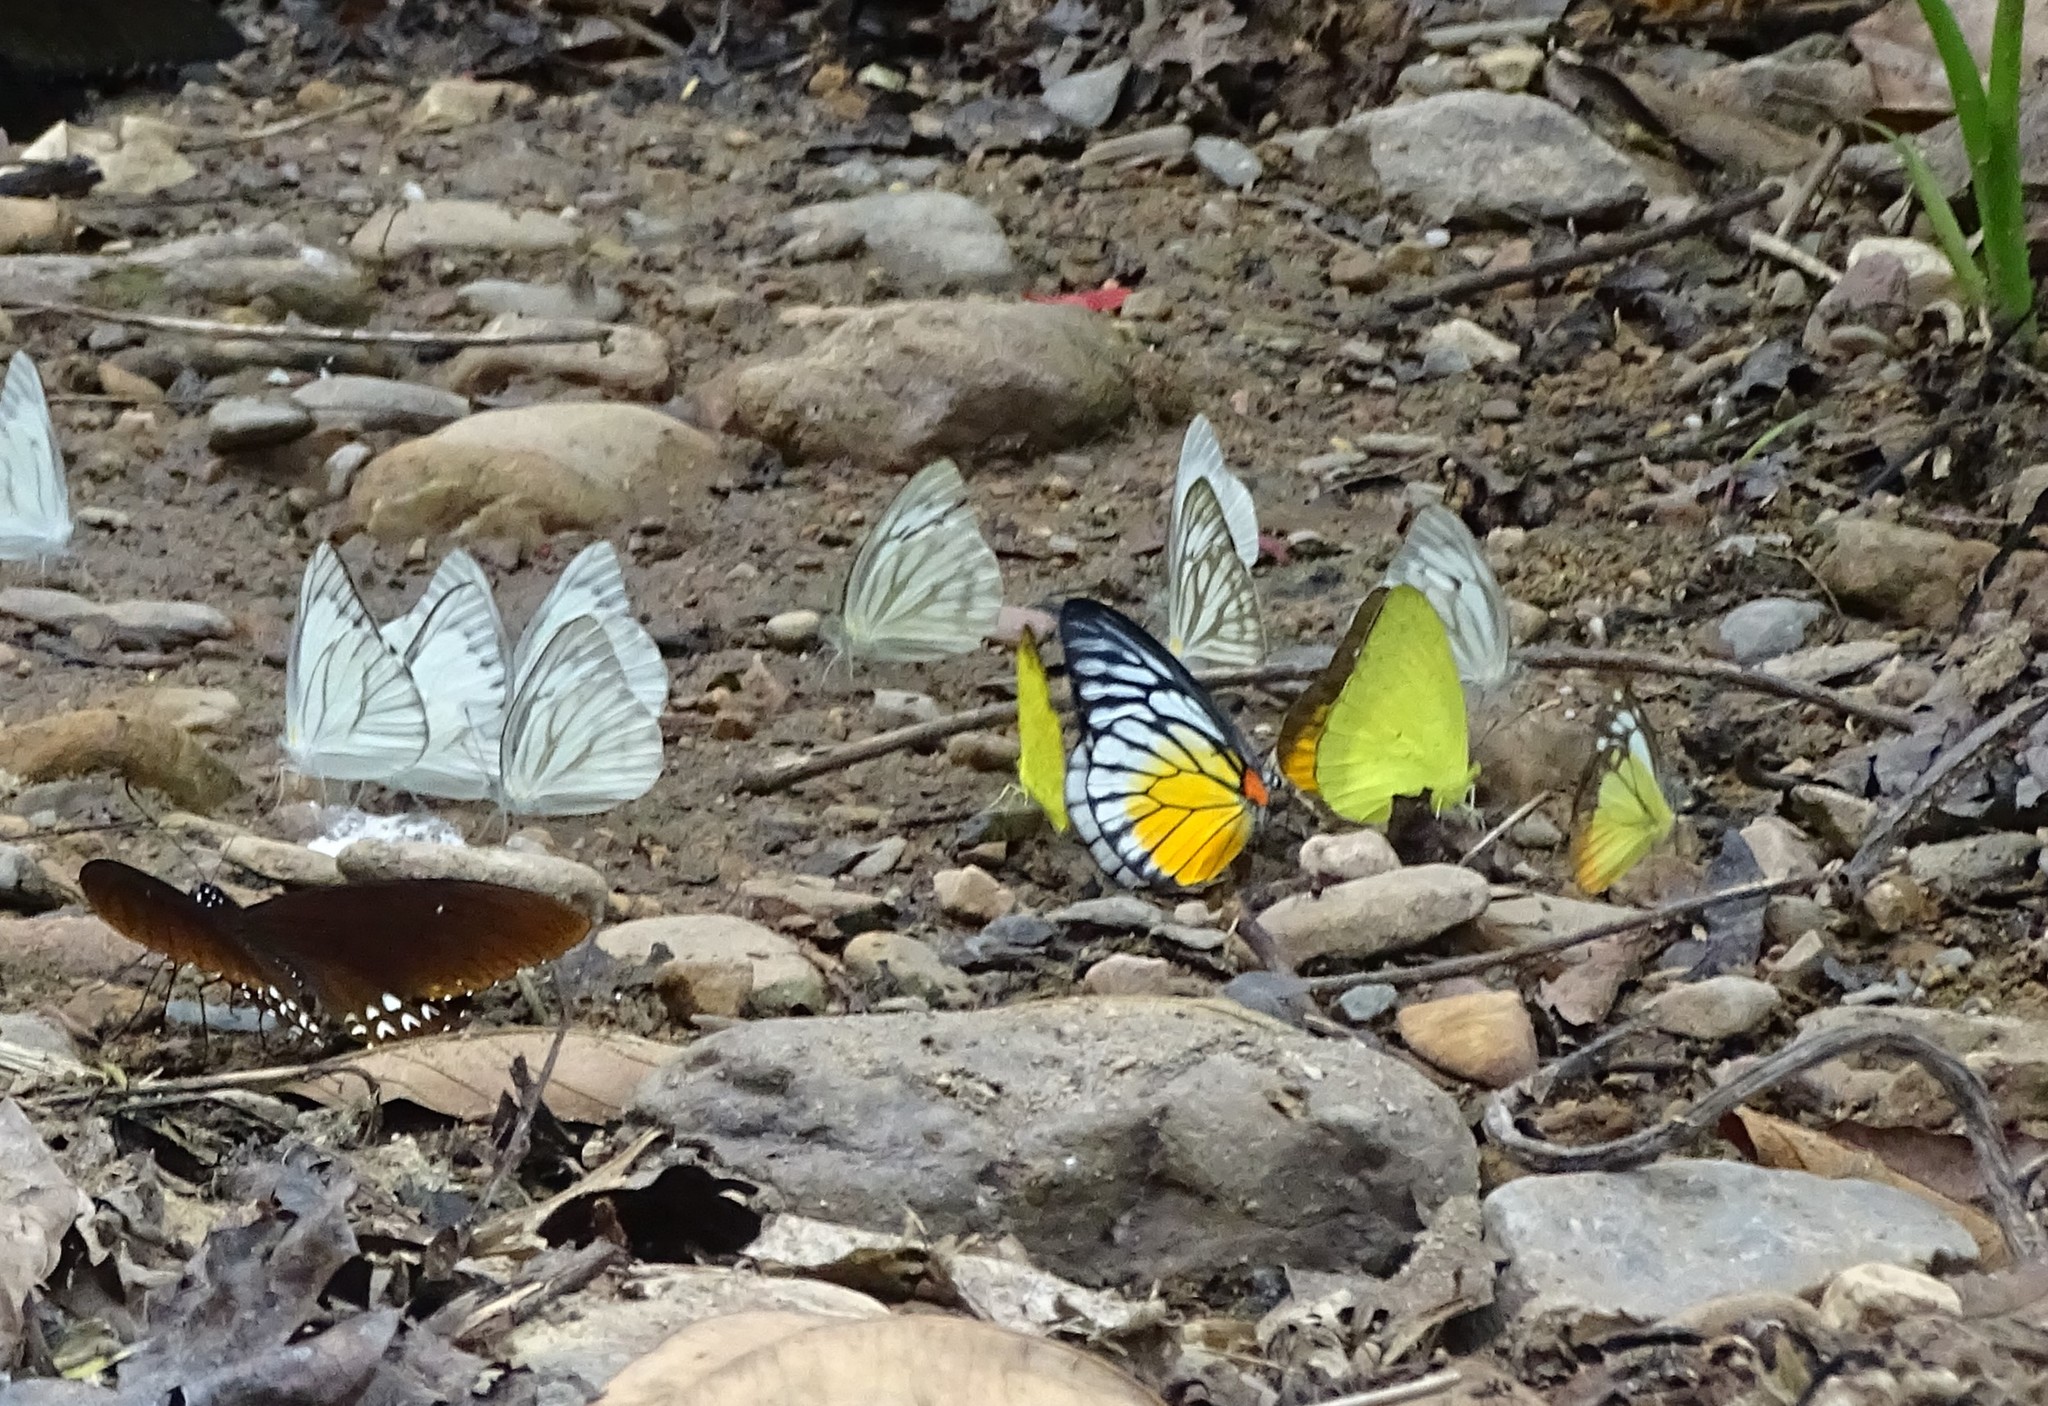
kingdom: Animalia
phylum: Arthropoda
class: Insecta
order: Lepidoptera
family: Pieridae
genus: Prioneris
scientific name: Prioneris philonome
